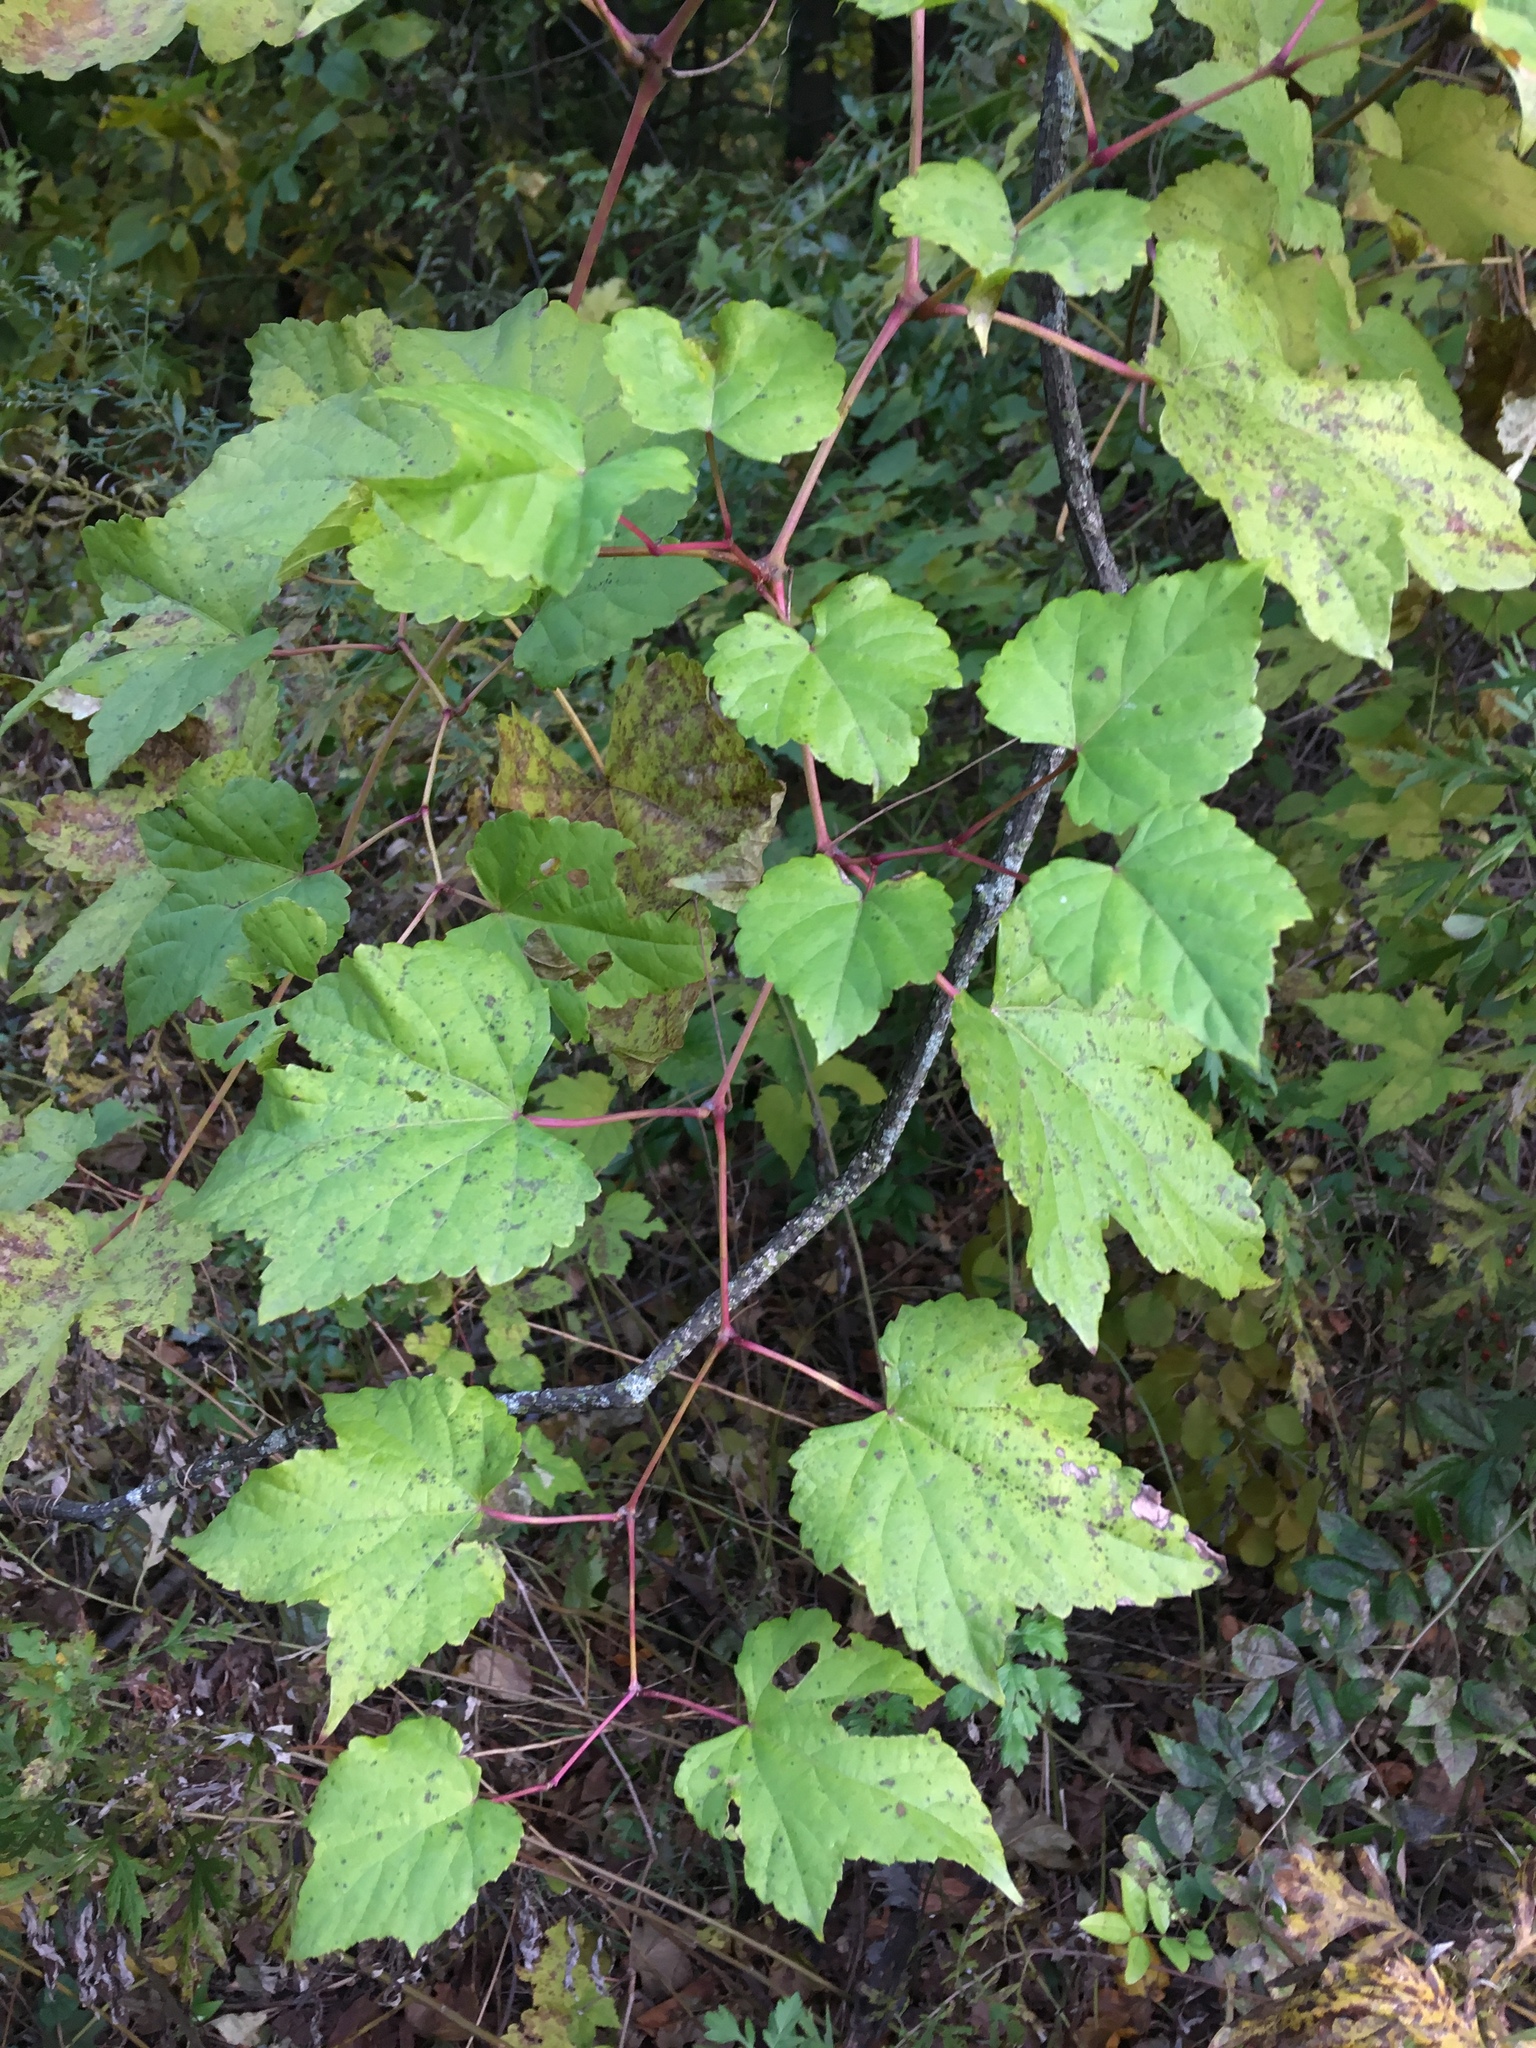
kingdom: Plantae
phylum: Tracheophyta
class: Magnoliopsida
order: Vitales
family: Vitaceae
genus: Ampelopsis
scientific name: Ampelopsis glandulosa
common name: Amur peppervine
